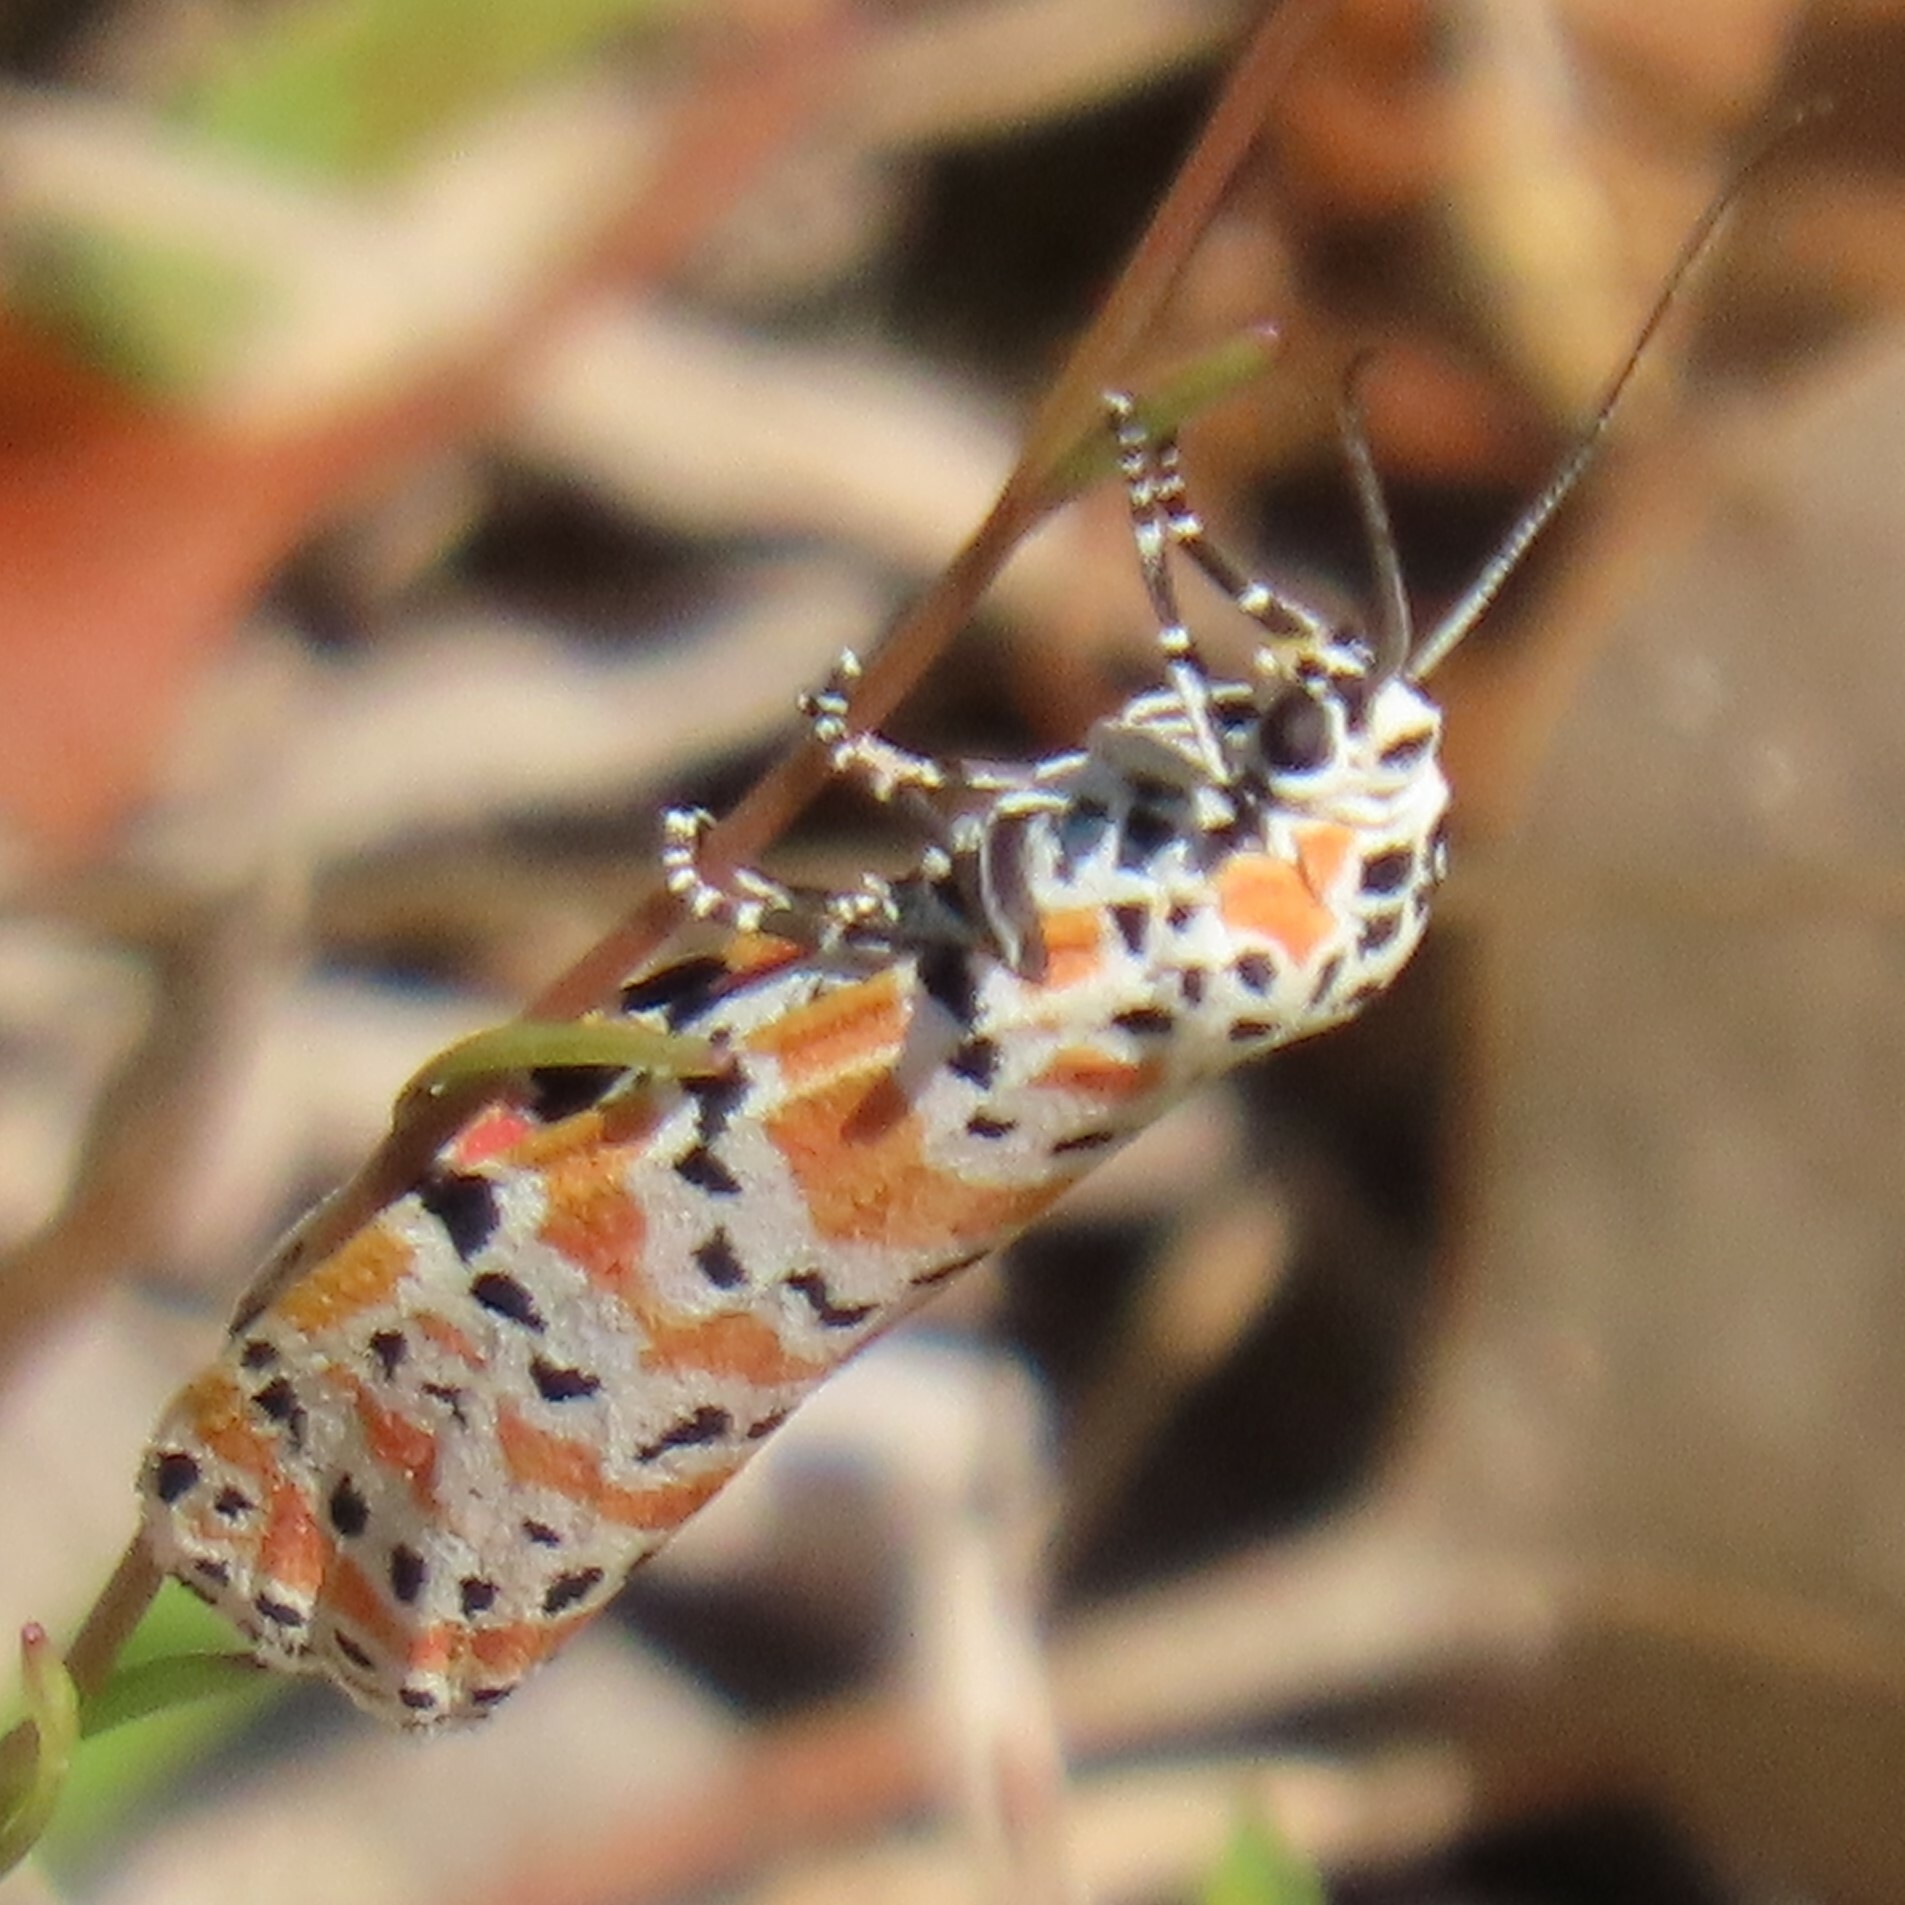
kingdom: Animalia
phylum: Arthropoda
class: Insecta
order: Lepidoptera
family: Erebidae
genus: Utetheisa
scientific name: Utetheisa ornatrix
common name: Beautiful utetheisa
